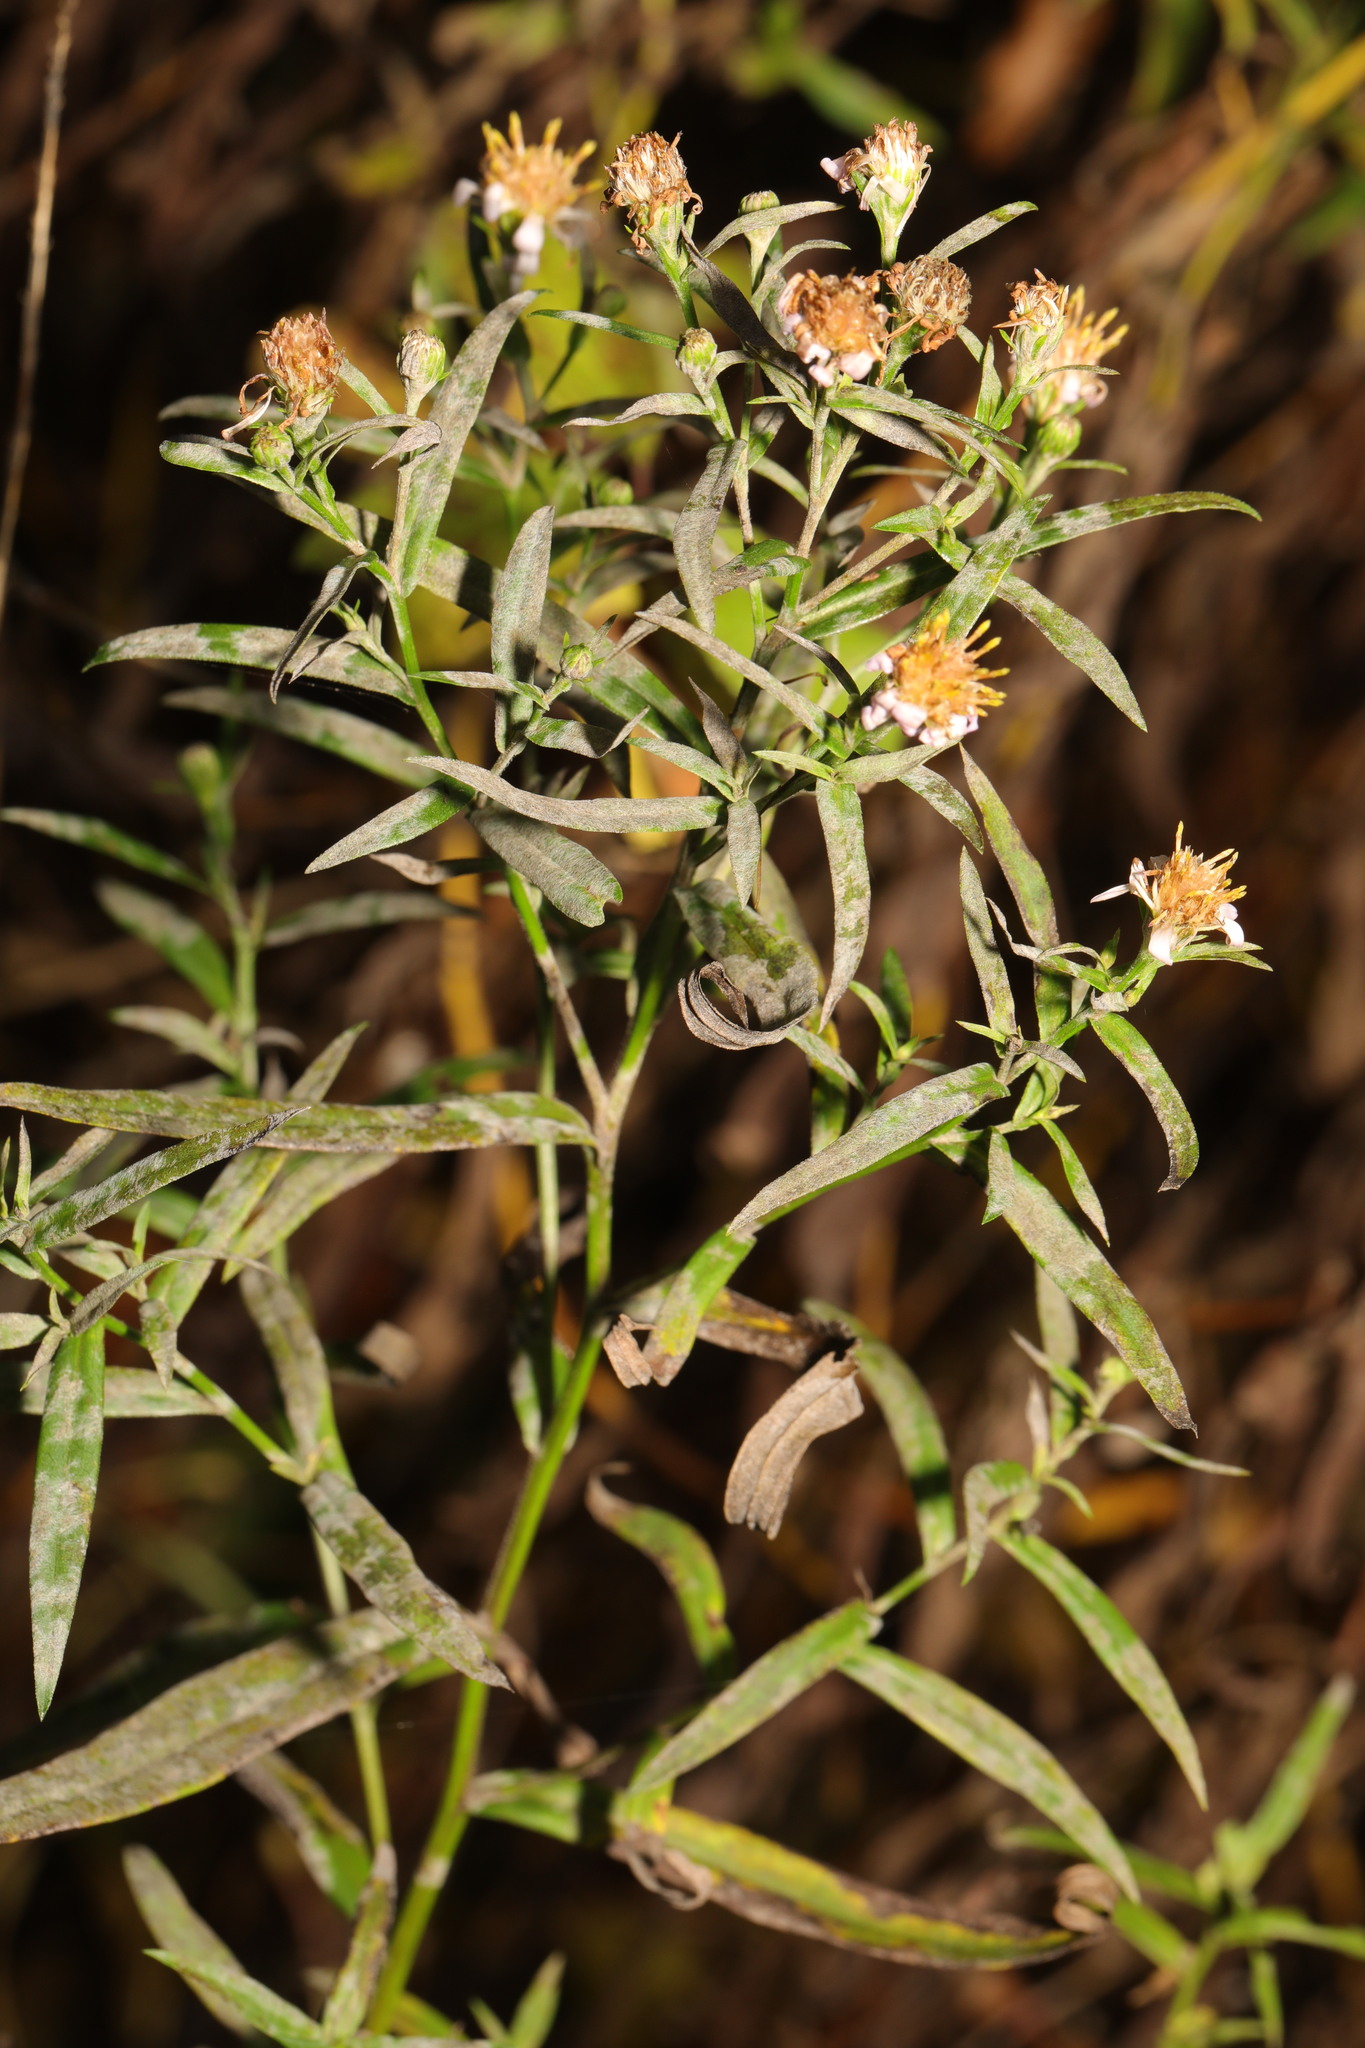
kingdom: Plantae
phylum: Tracheophyta
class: Magnoliopsida
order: Asterales
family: Asteraceae
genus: Symphyotrichum
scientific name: Symphyotrichum
